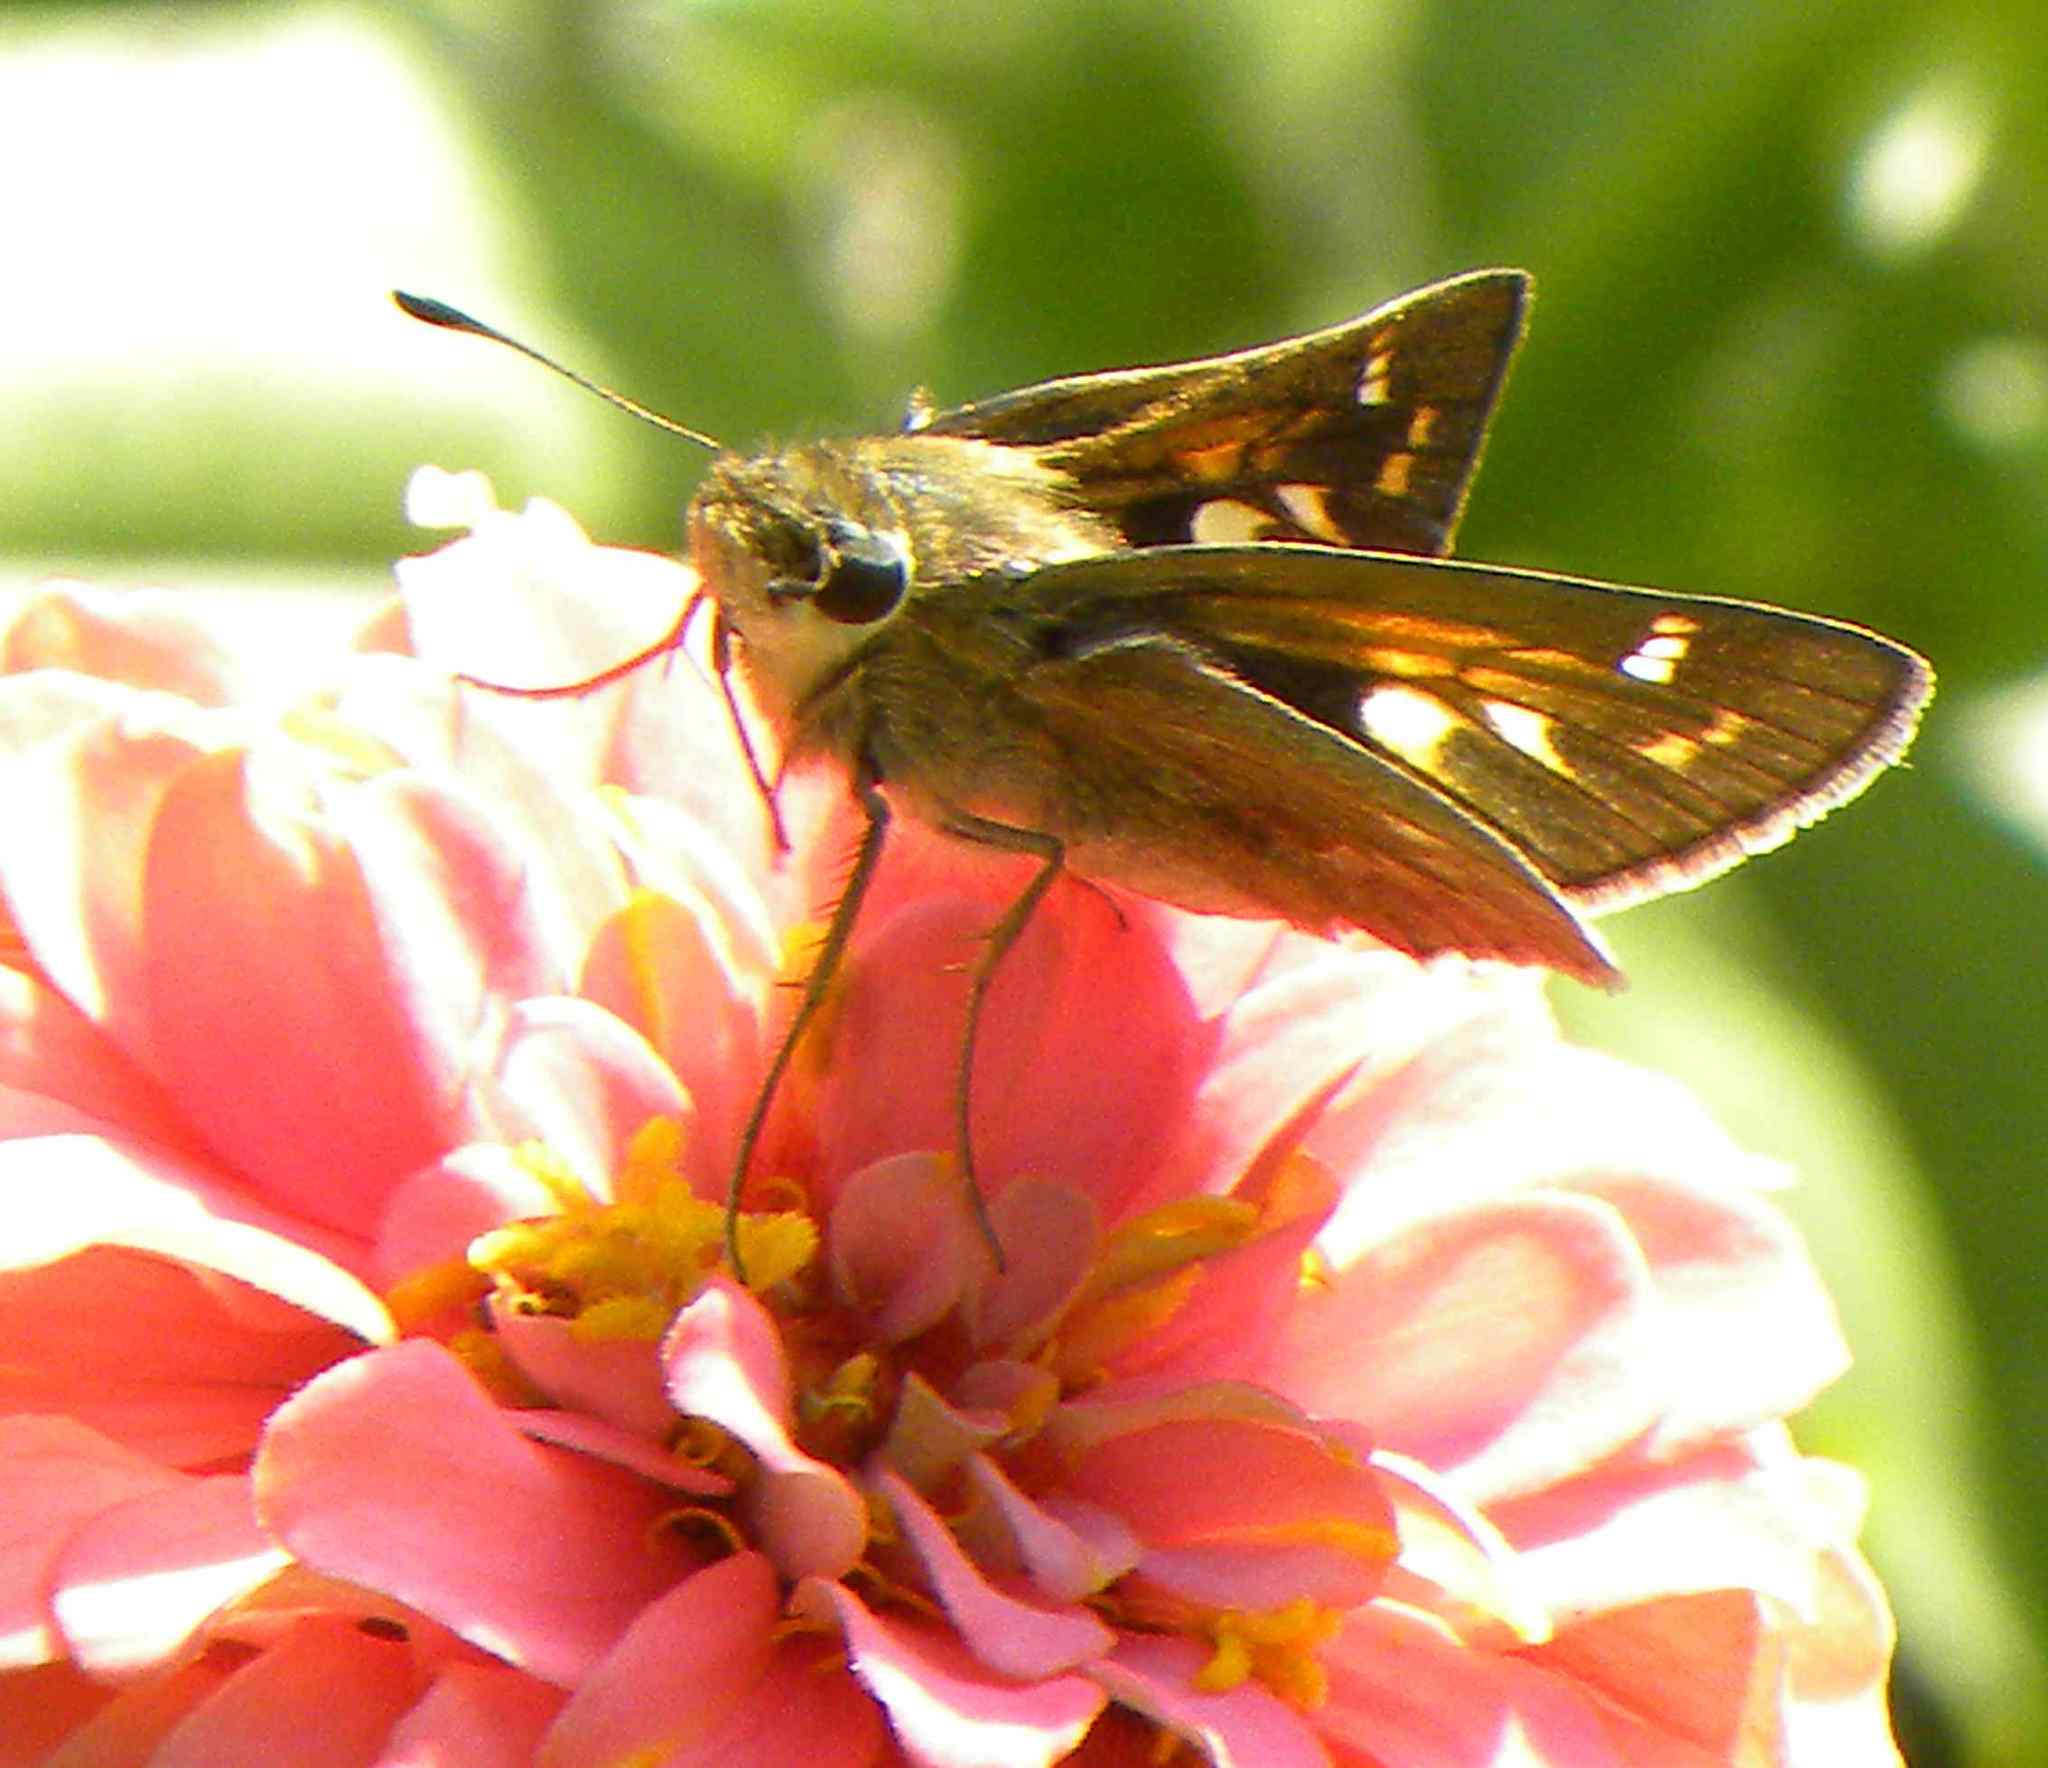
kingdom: Animalia
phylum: Arthropoda
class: Insecta
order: Lepidoptera
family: Hesperiidae
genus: Atalopedes
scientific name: Atalopedes
